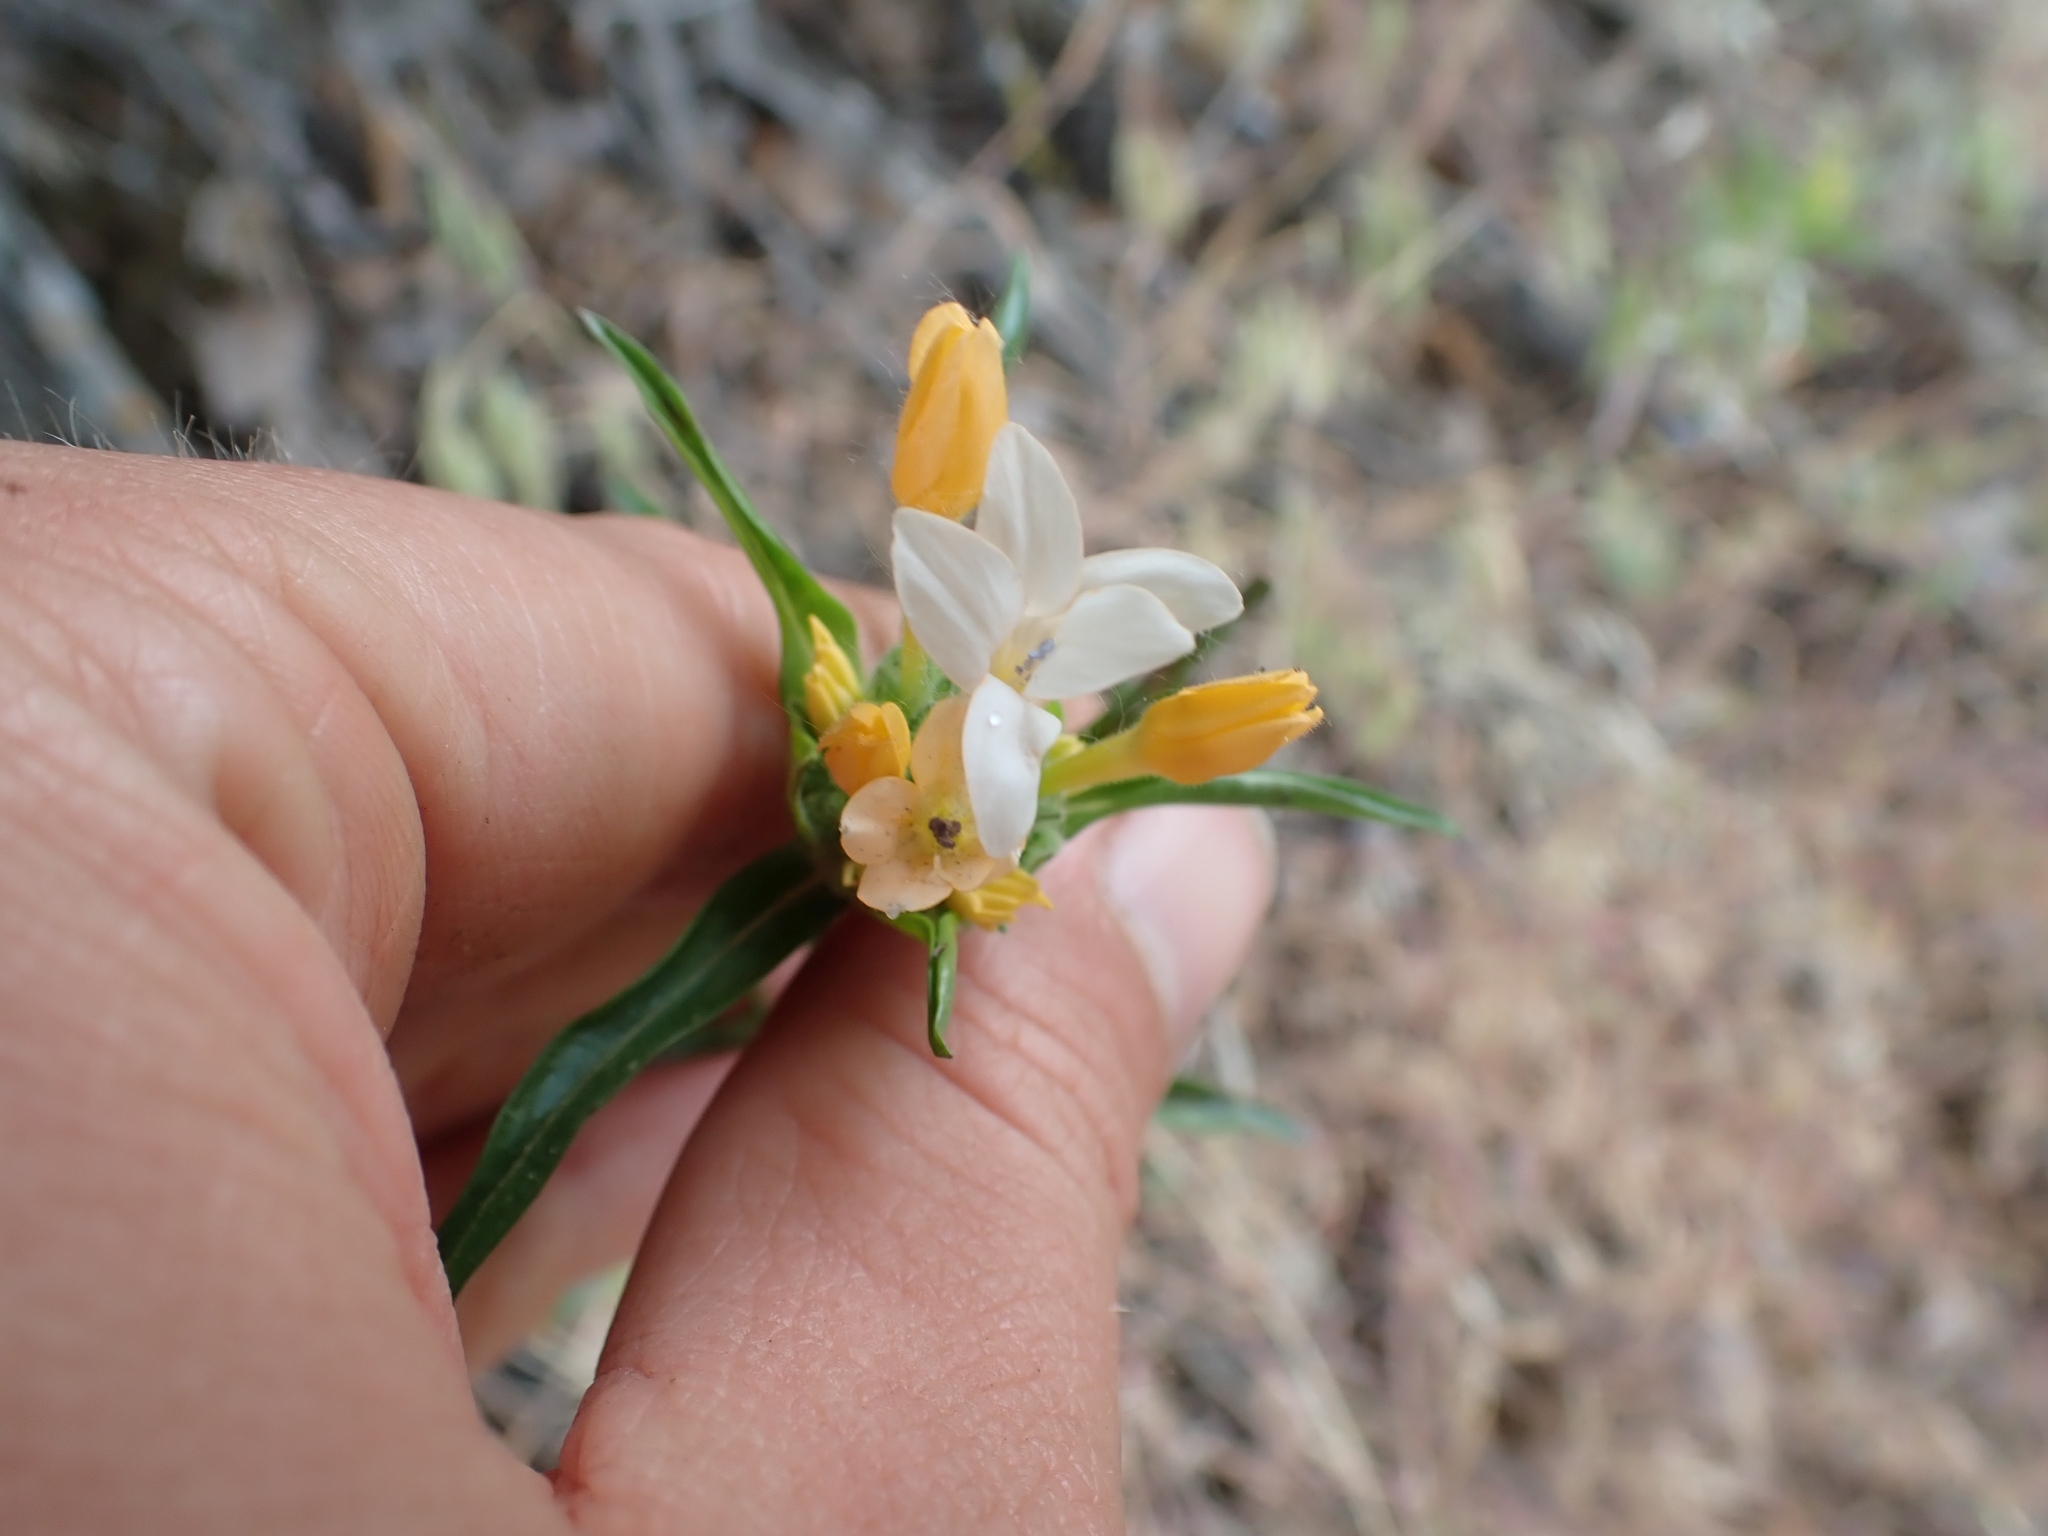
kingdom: Plantae
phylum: Tracheophyta
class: Magnoliopsida
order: Ericales
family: Polemoniaceae
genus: Collomia
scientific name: Collomia grandiflora
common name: California strawflower
